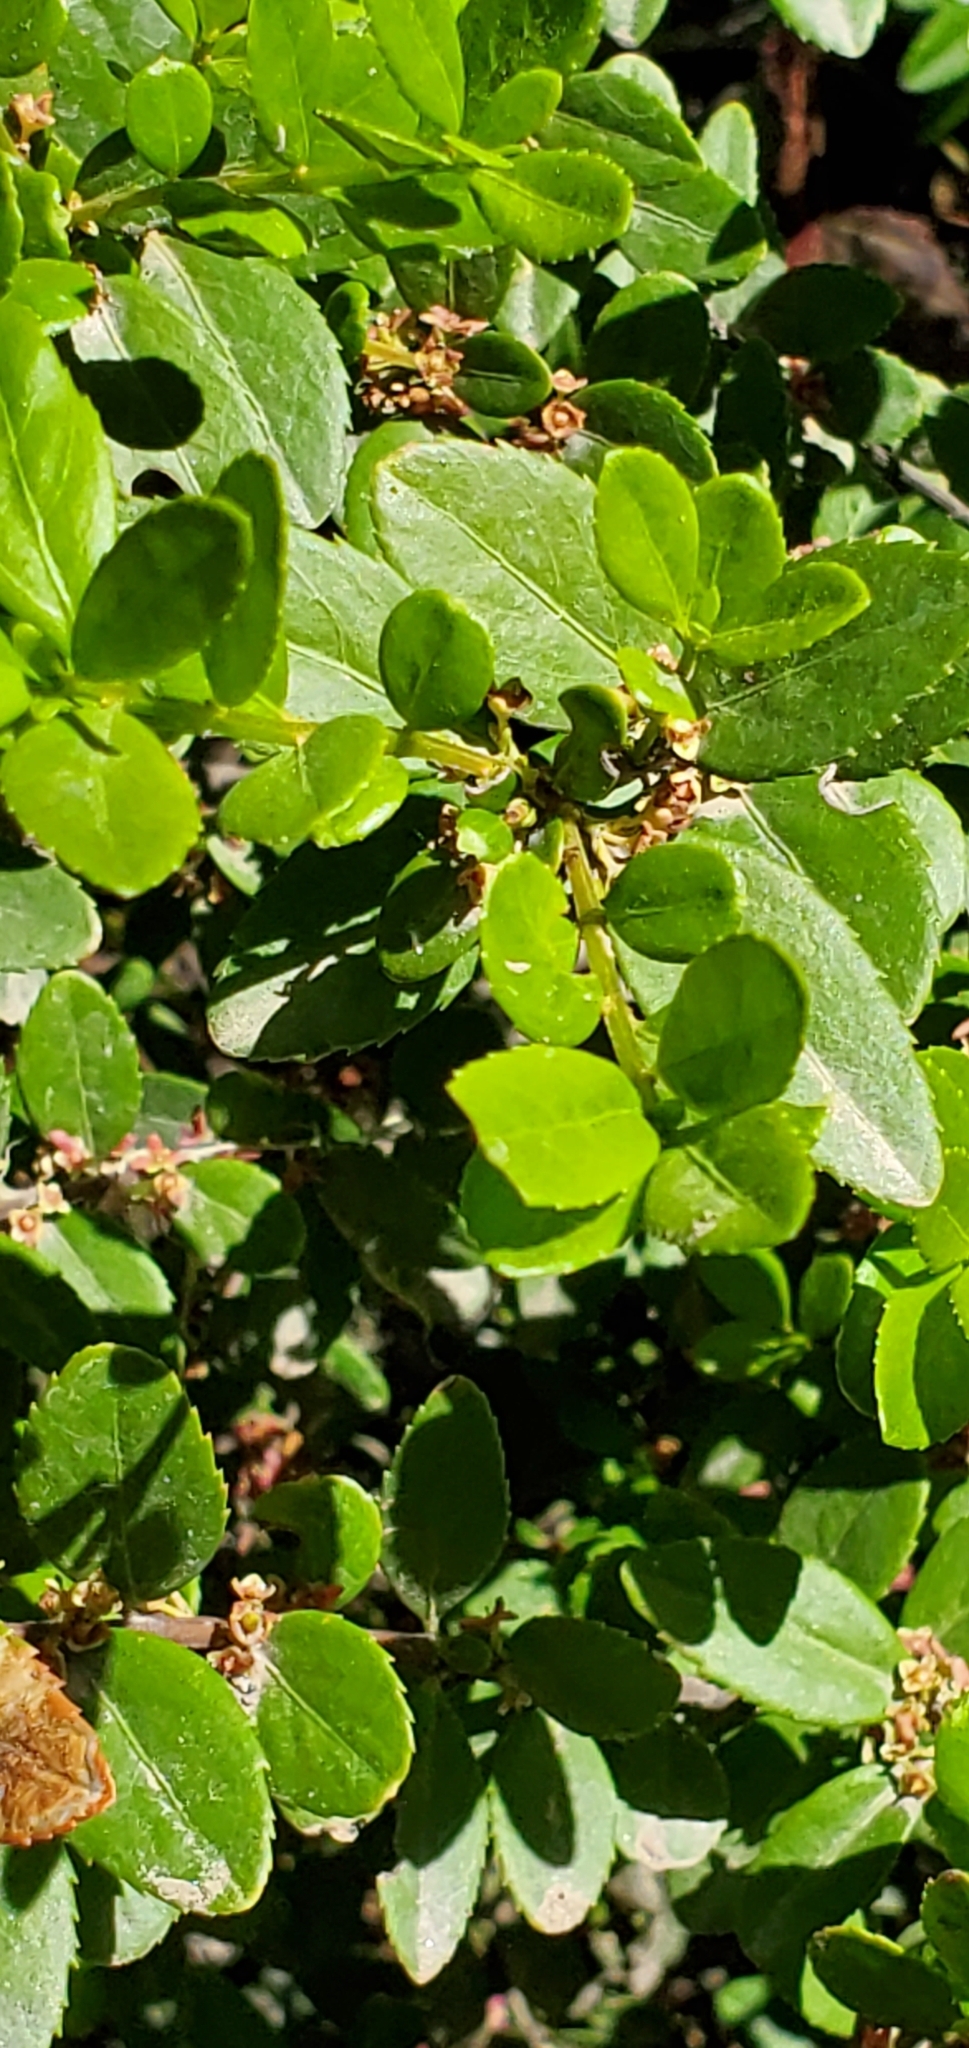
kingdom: Plantae
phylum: Tracheophyta
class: Magnoliopsida
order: Celastrales
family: Celastraceae
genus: Paxistima
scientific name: Paxistima myrsinites
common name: Mountain-lover
